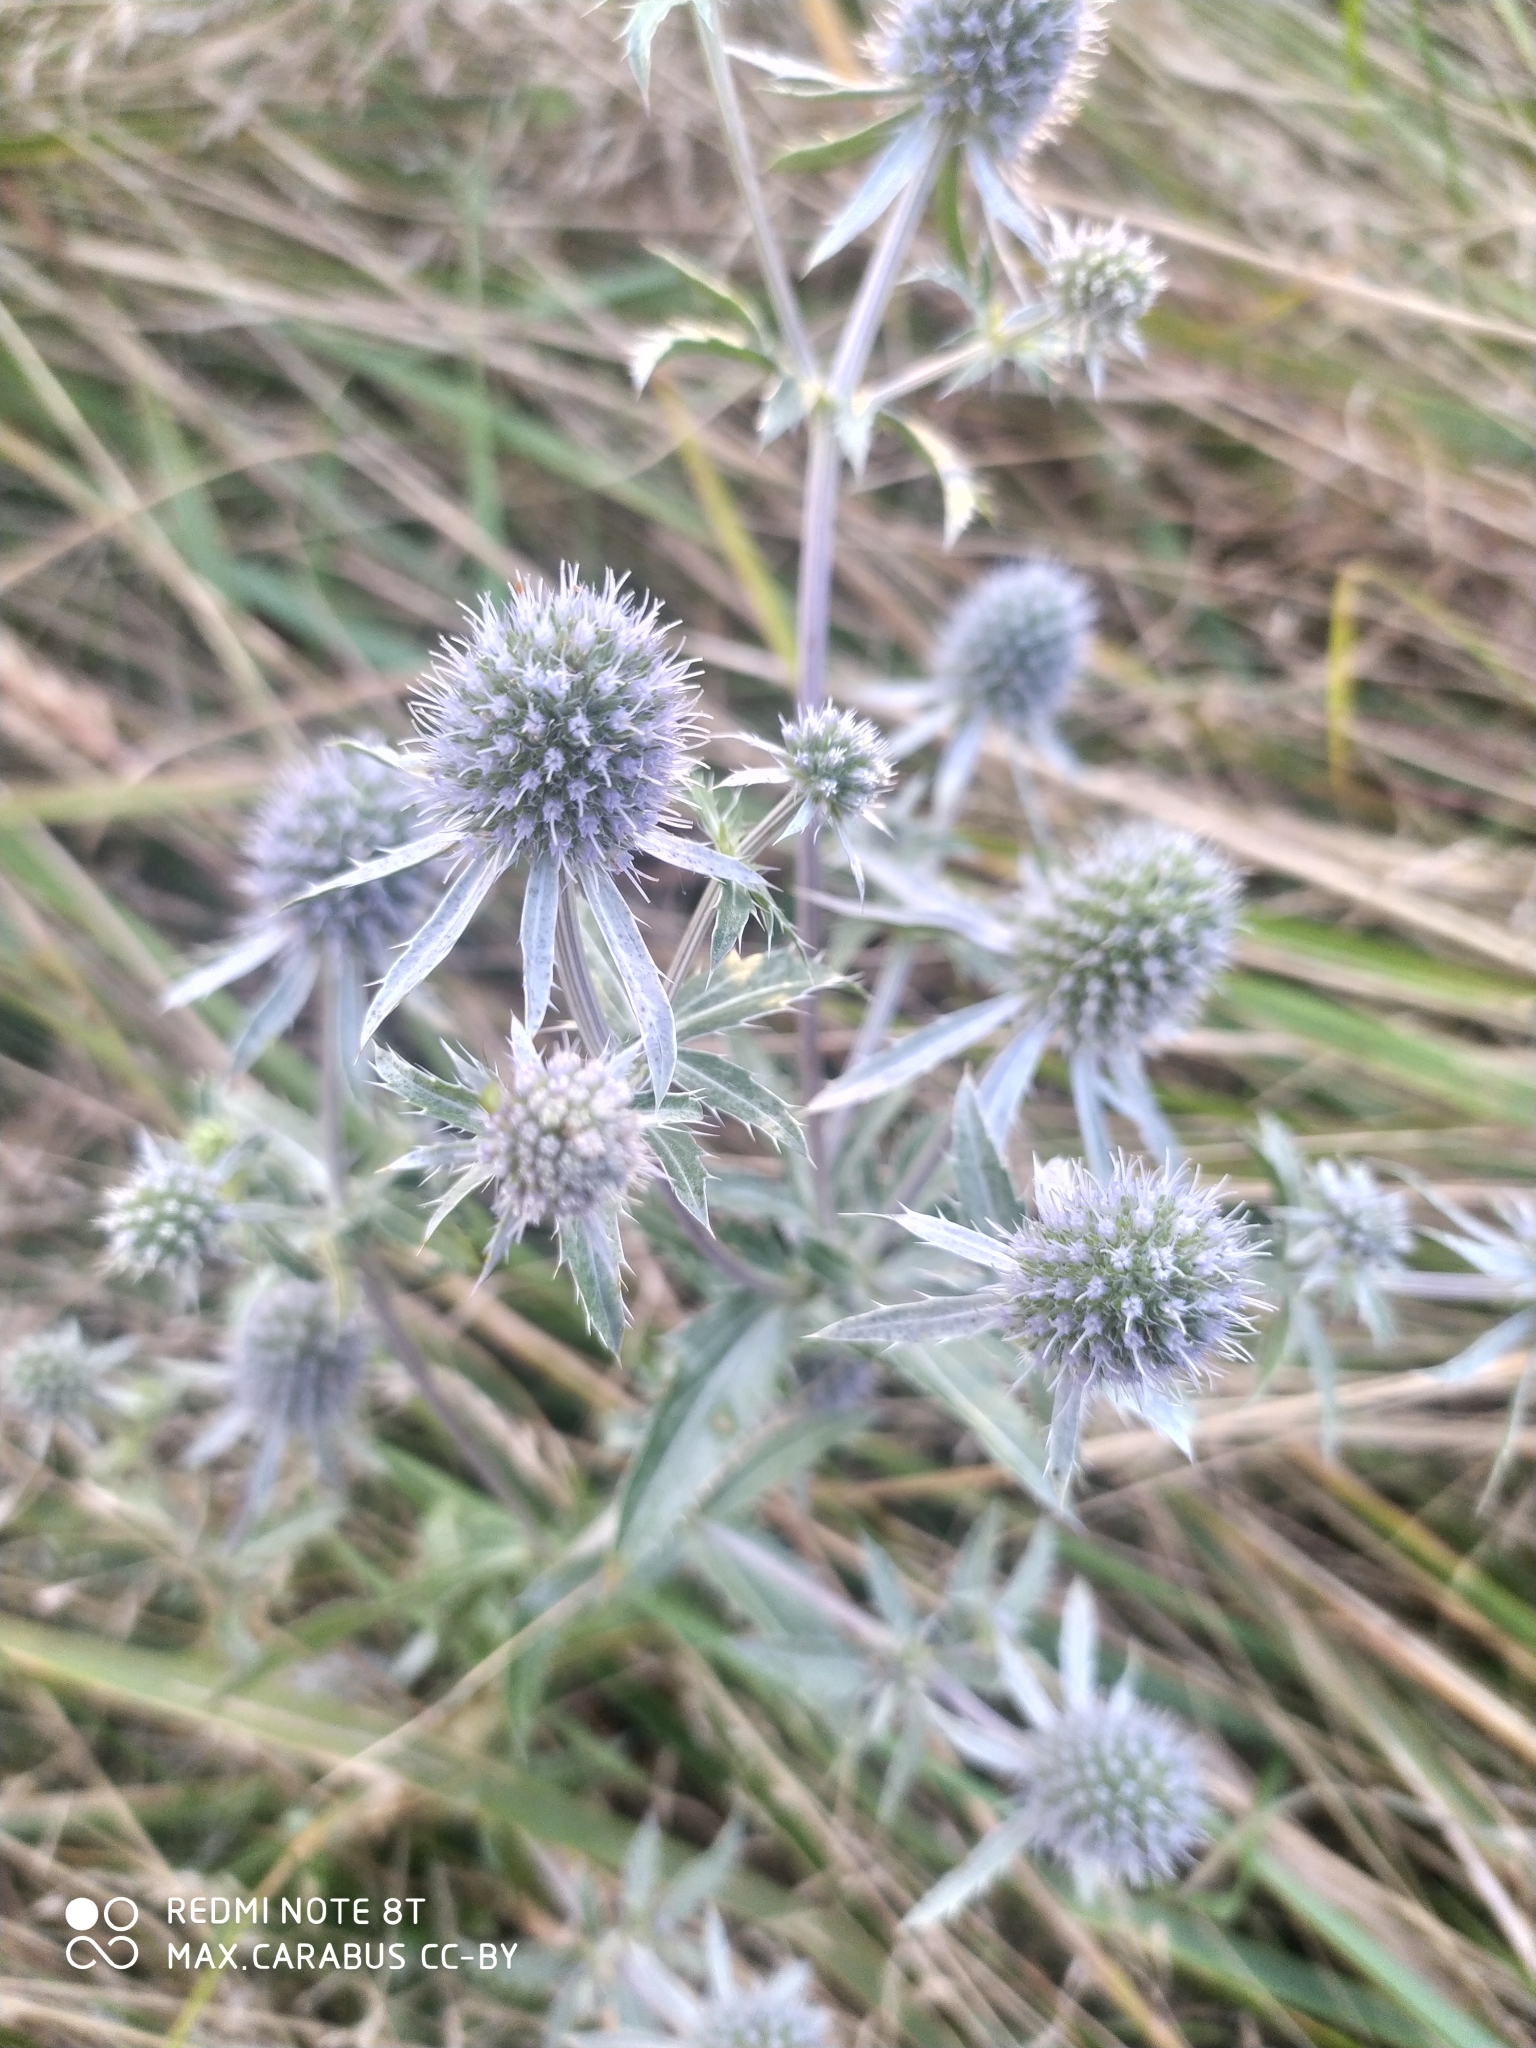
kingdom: Plantae
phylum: Tracheophyta
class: Magnoliopsida
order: Apiales
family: Apiaceae
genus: Eryngium
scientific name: Eryngium planum
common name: Blue eryngo
